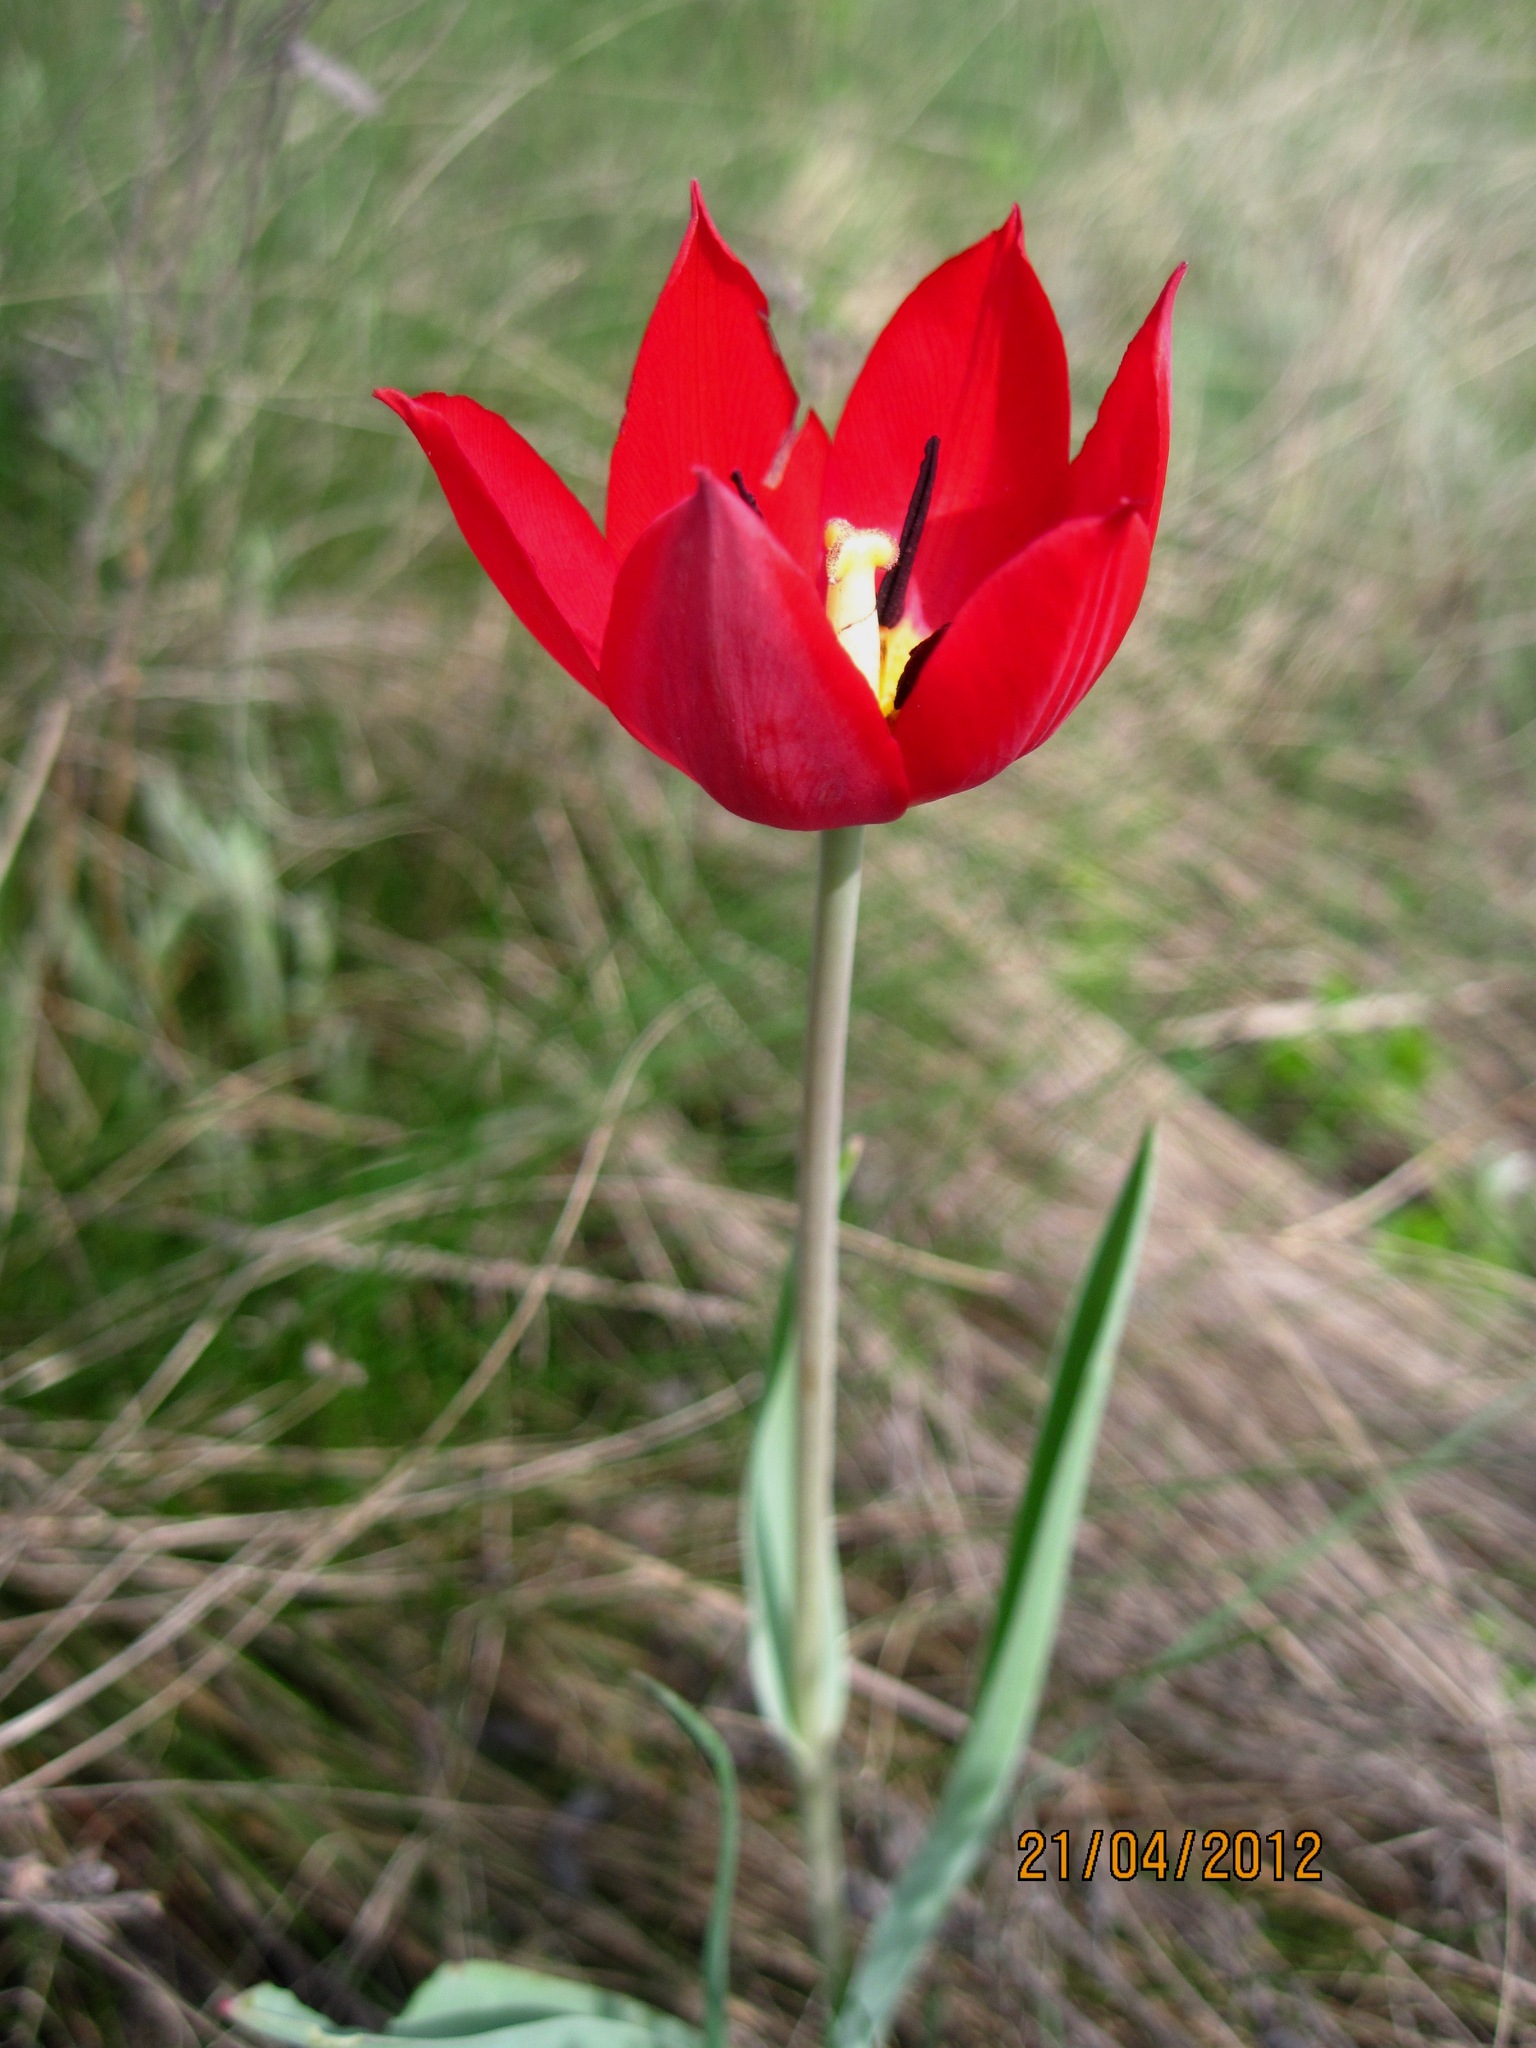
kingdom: Plantae
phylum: Tracheophyta
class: Liliopsida
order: Liliales
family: Liliaceae
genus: Tulipa
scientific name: Tulipa suaveolens
